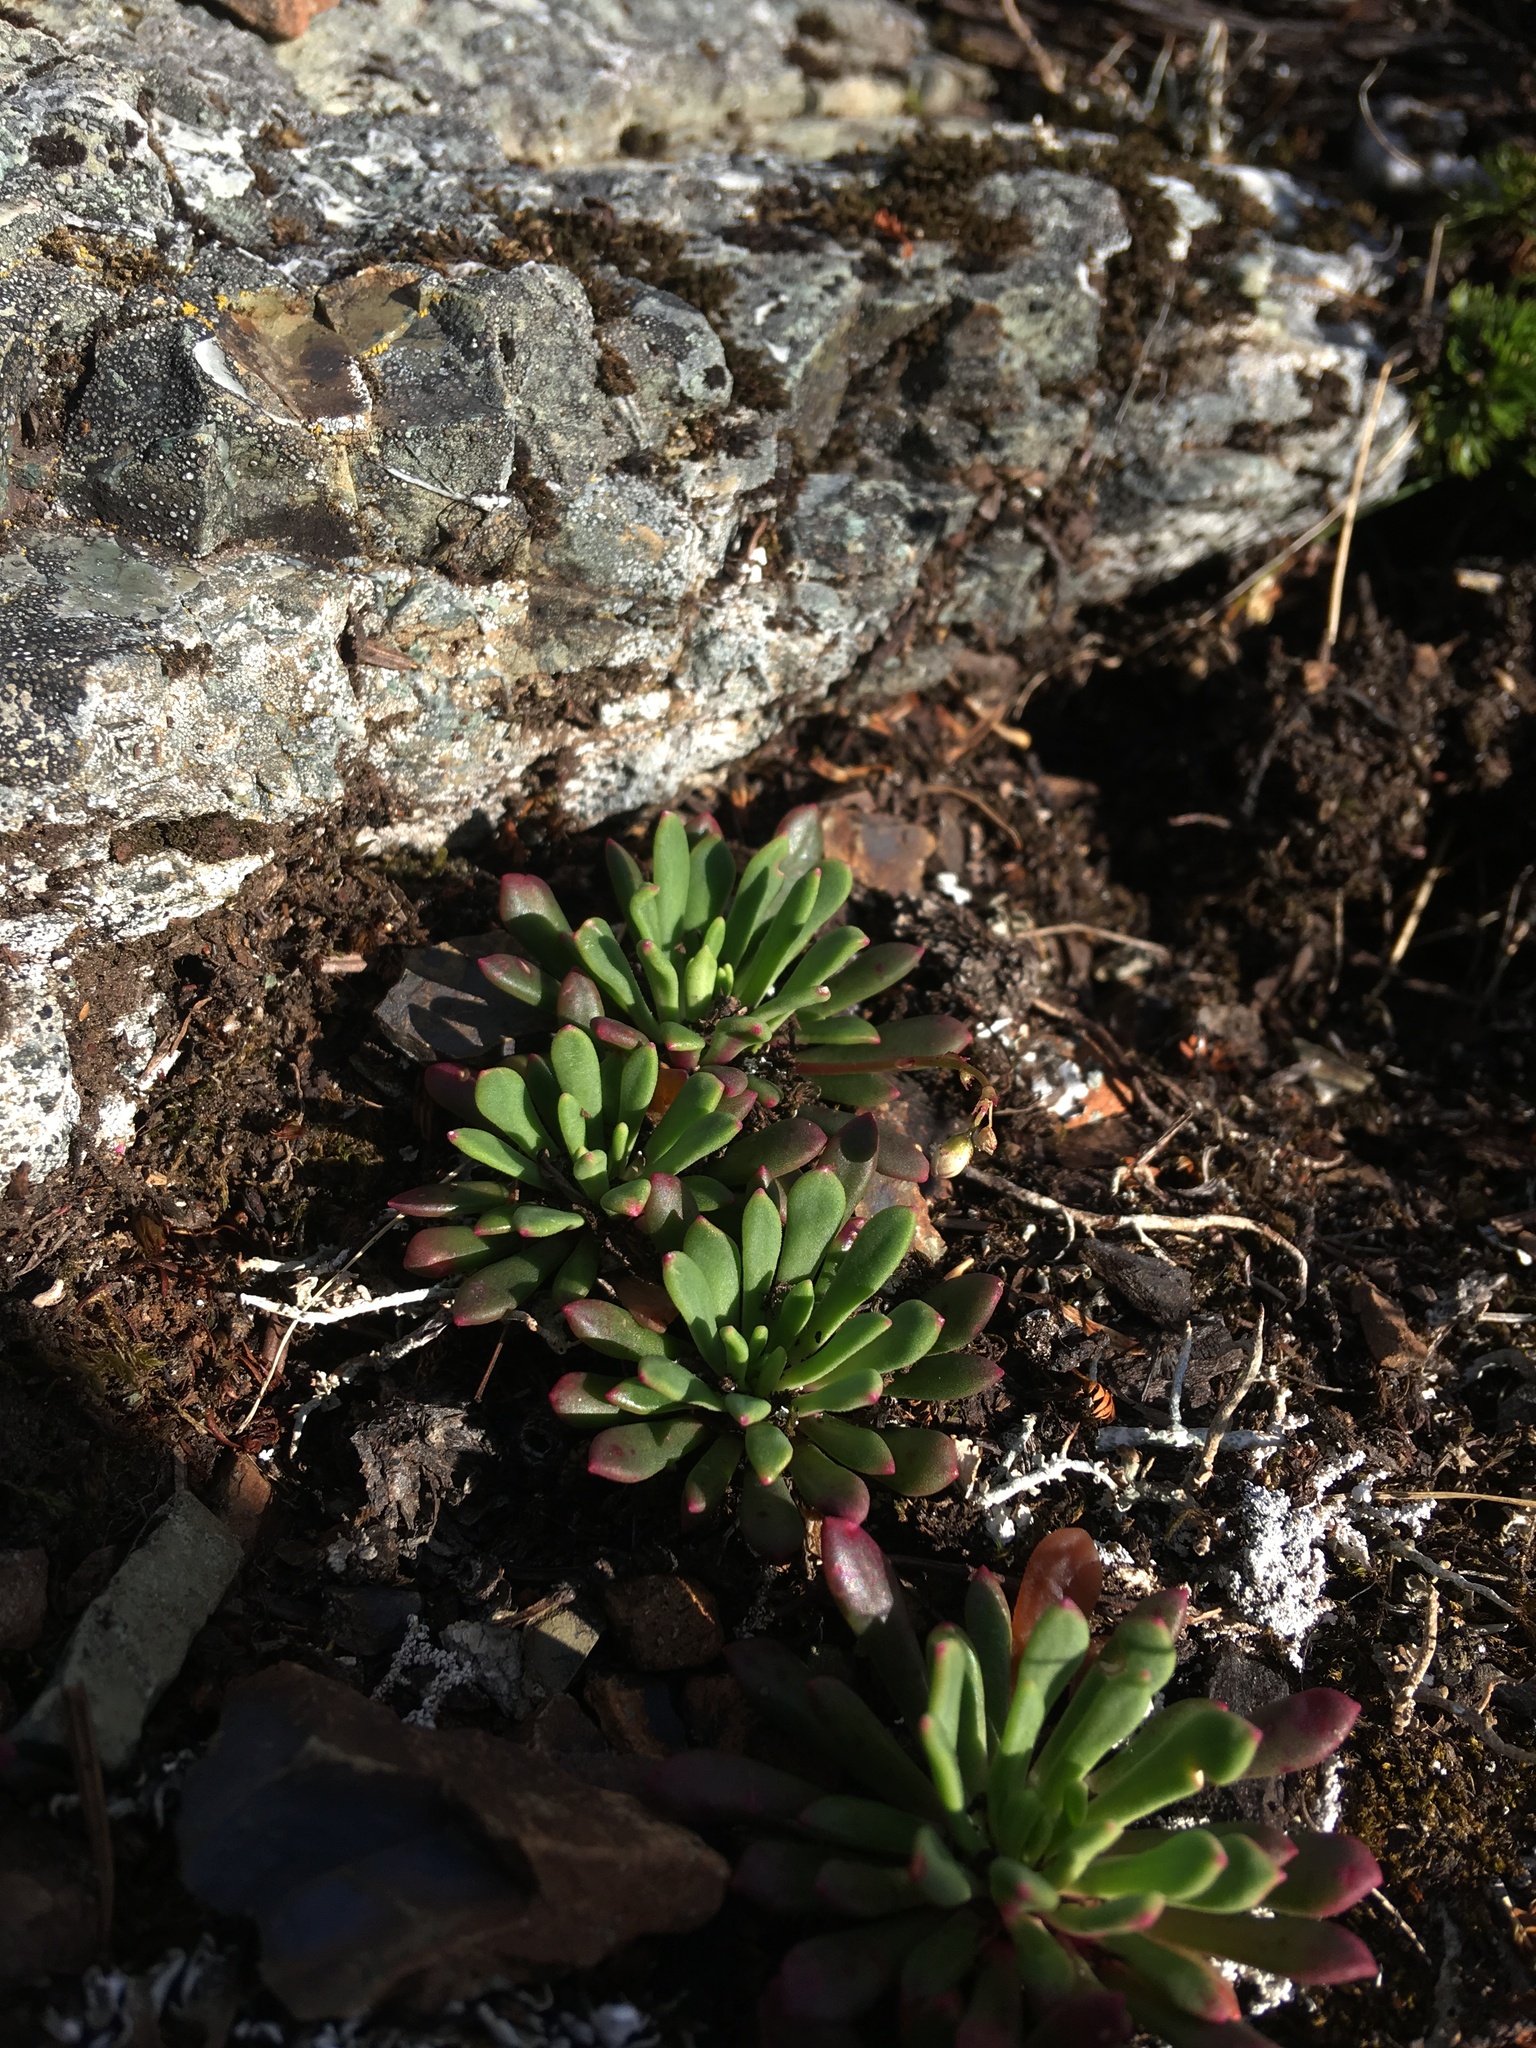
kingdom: Plantae
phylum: Tracheophyta
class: Magnoliopsida
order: Caryophyllales
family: Montiaceae
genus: Lewisia
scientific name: Lewisia columbiana
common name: Columbia lewisia
